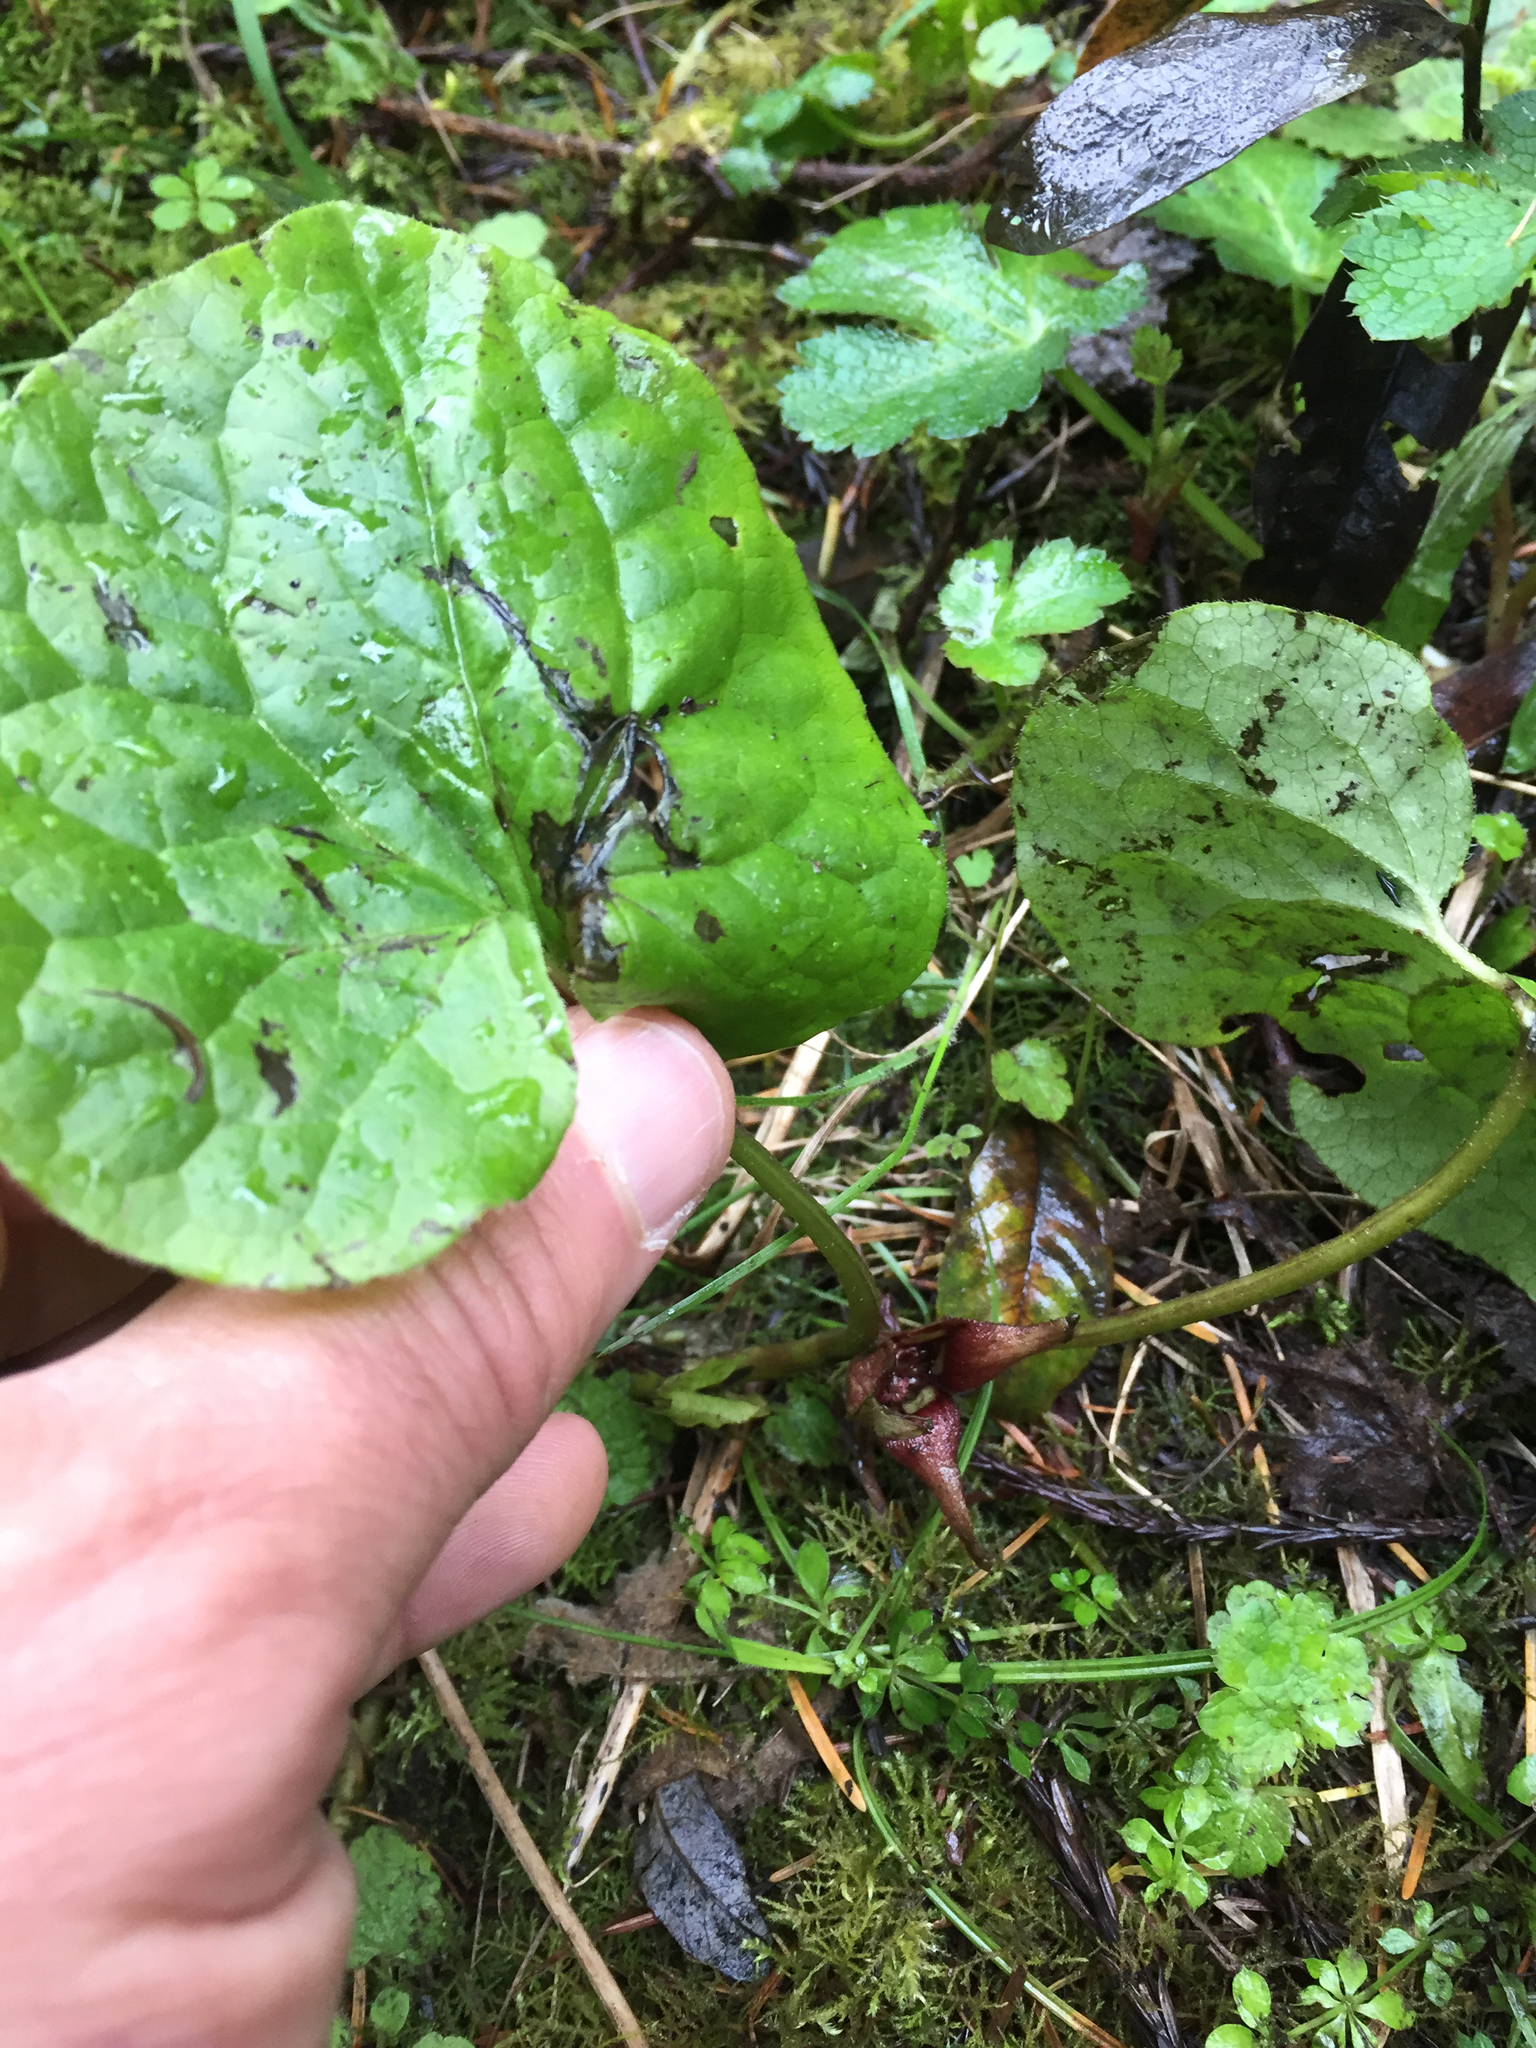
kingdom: Plantae
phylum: Tracheophyta
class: Magnoliopsida
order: Piperales
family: Aristolochiaceae
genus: Asarum
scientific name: Asarum caudatum
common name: Wild ginger
